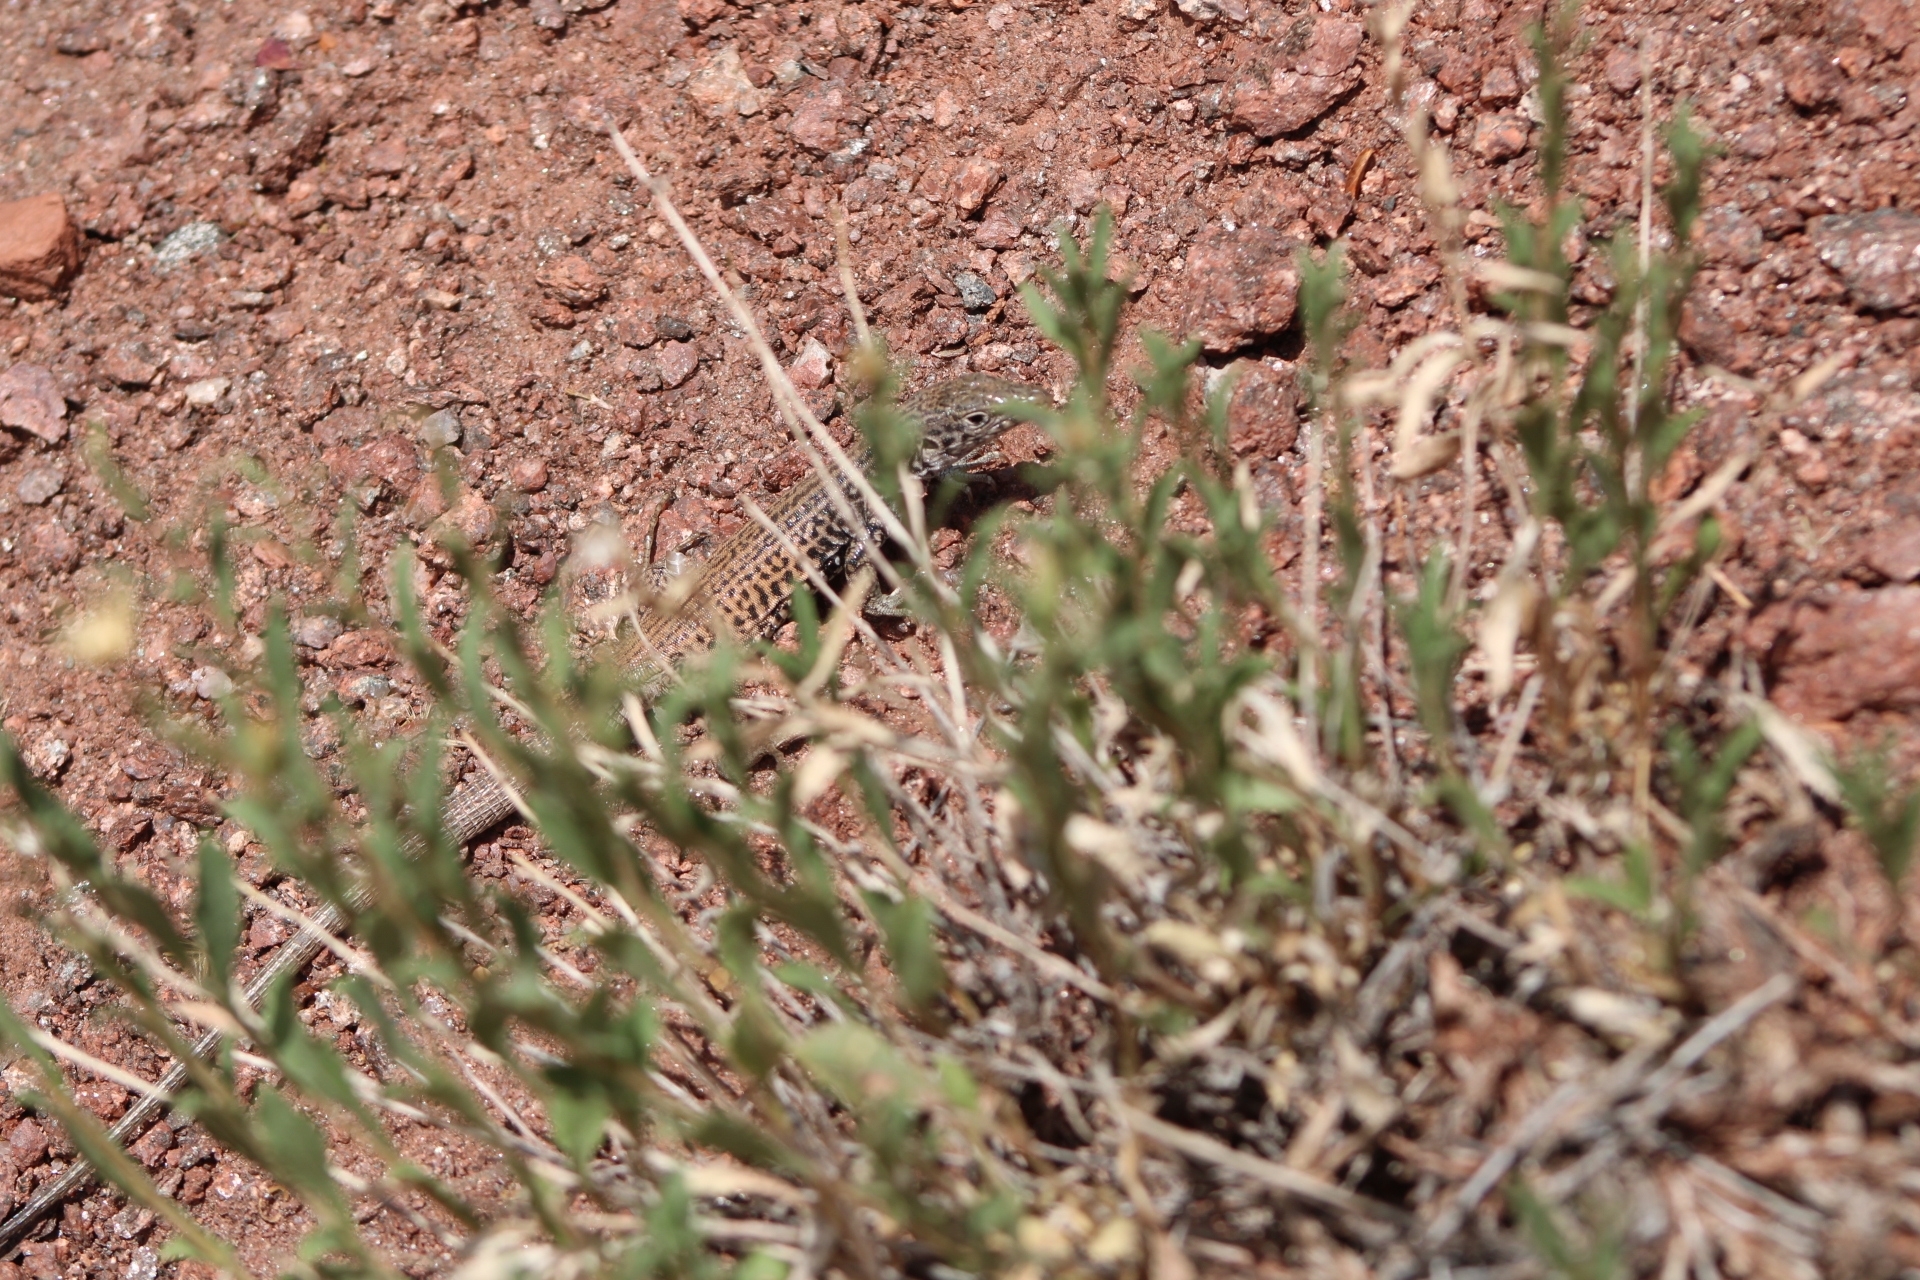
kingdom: Animalia
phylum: Chordata
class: Squamata
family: Teiidae
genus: Aspidoscelis
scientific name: Aspidoscelis tigris
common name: Tiger whiptail
